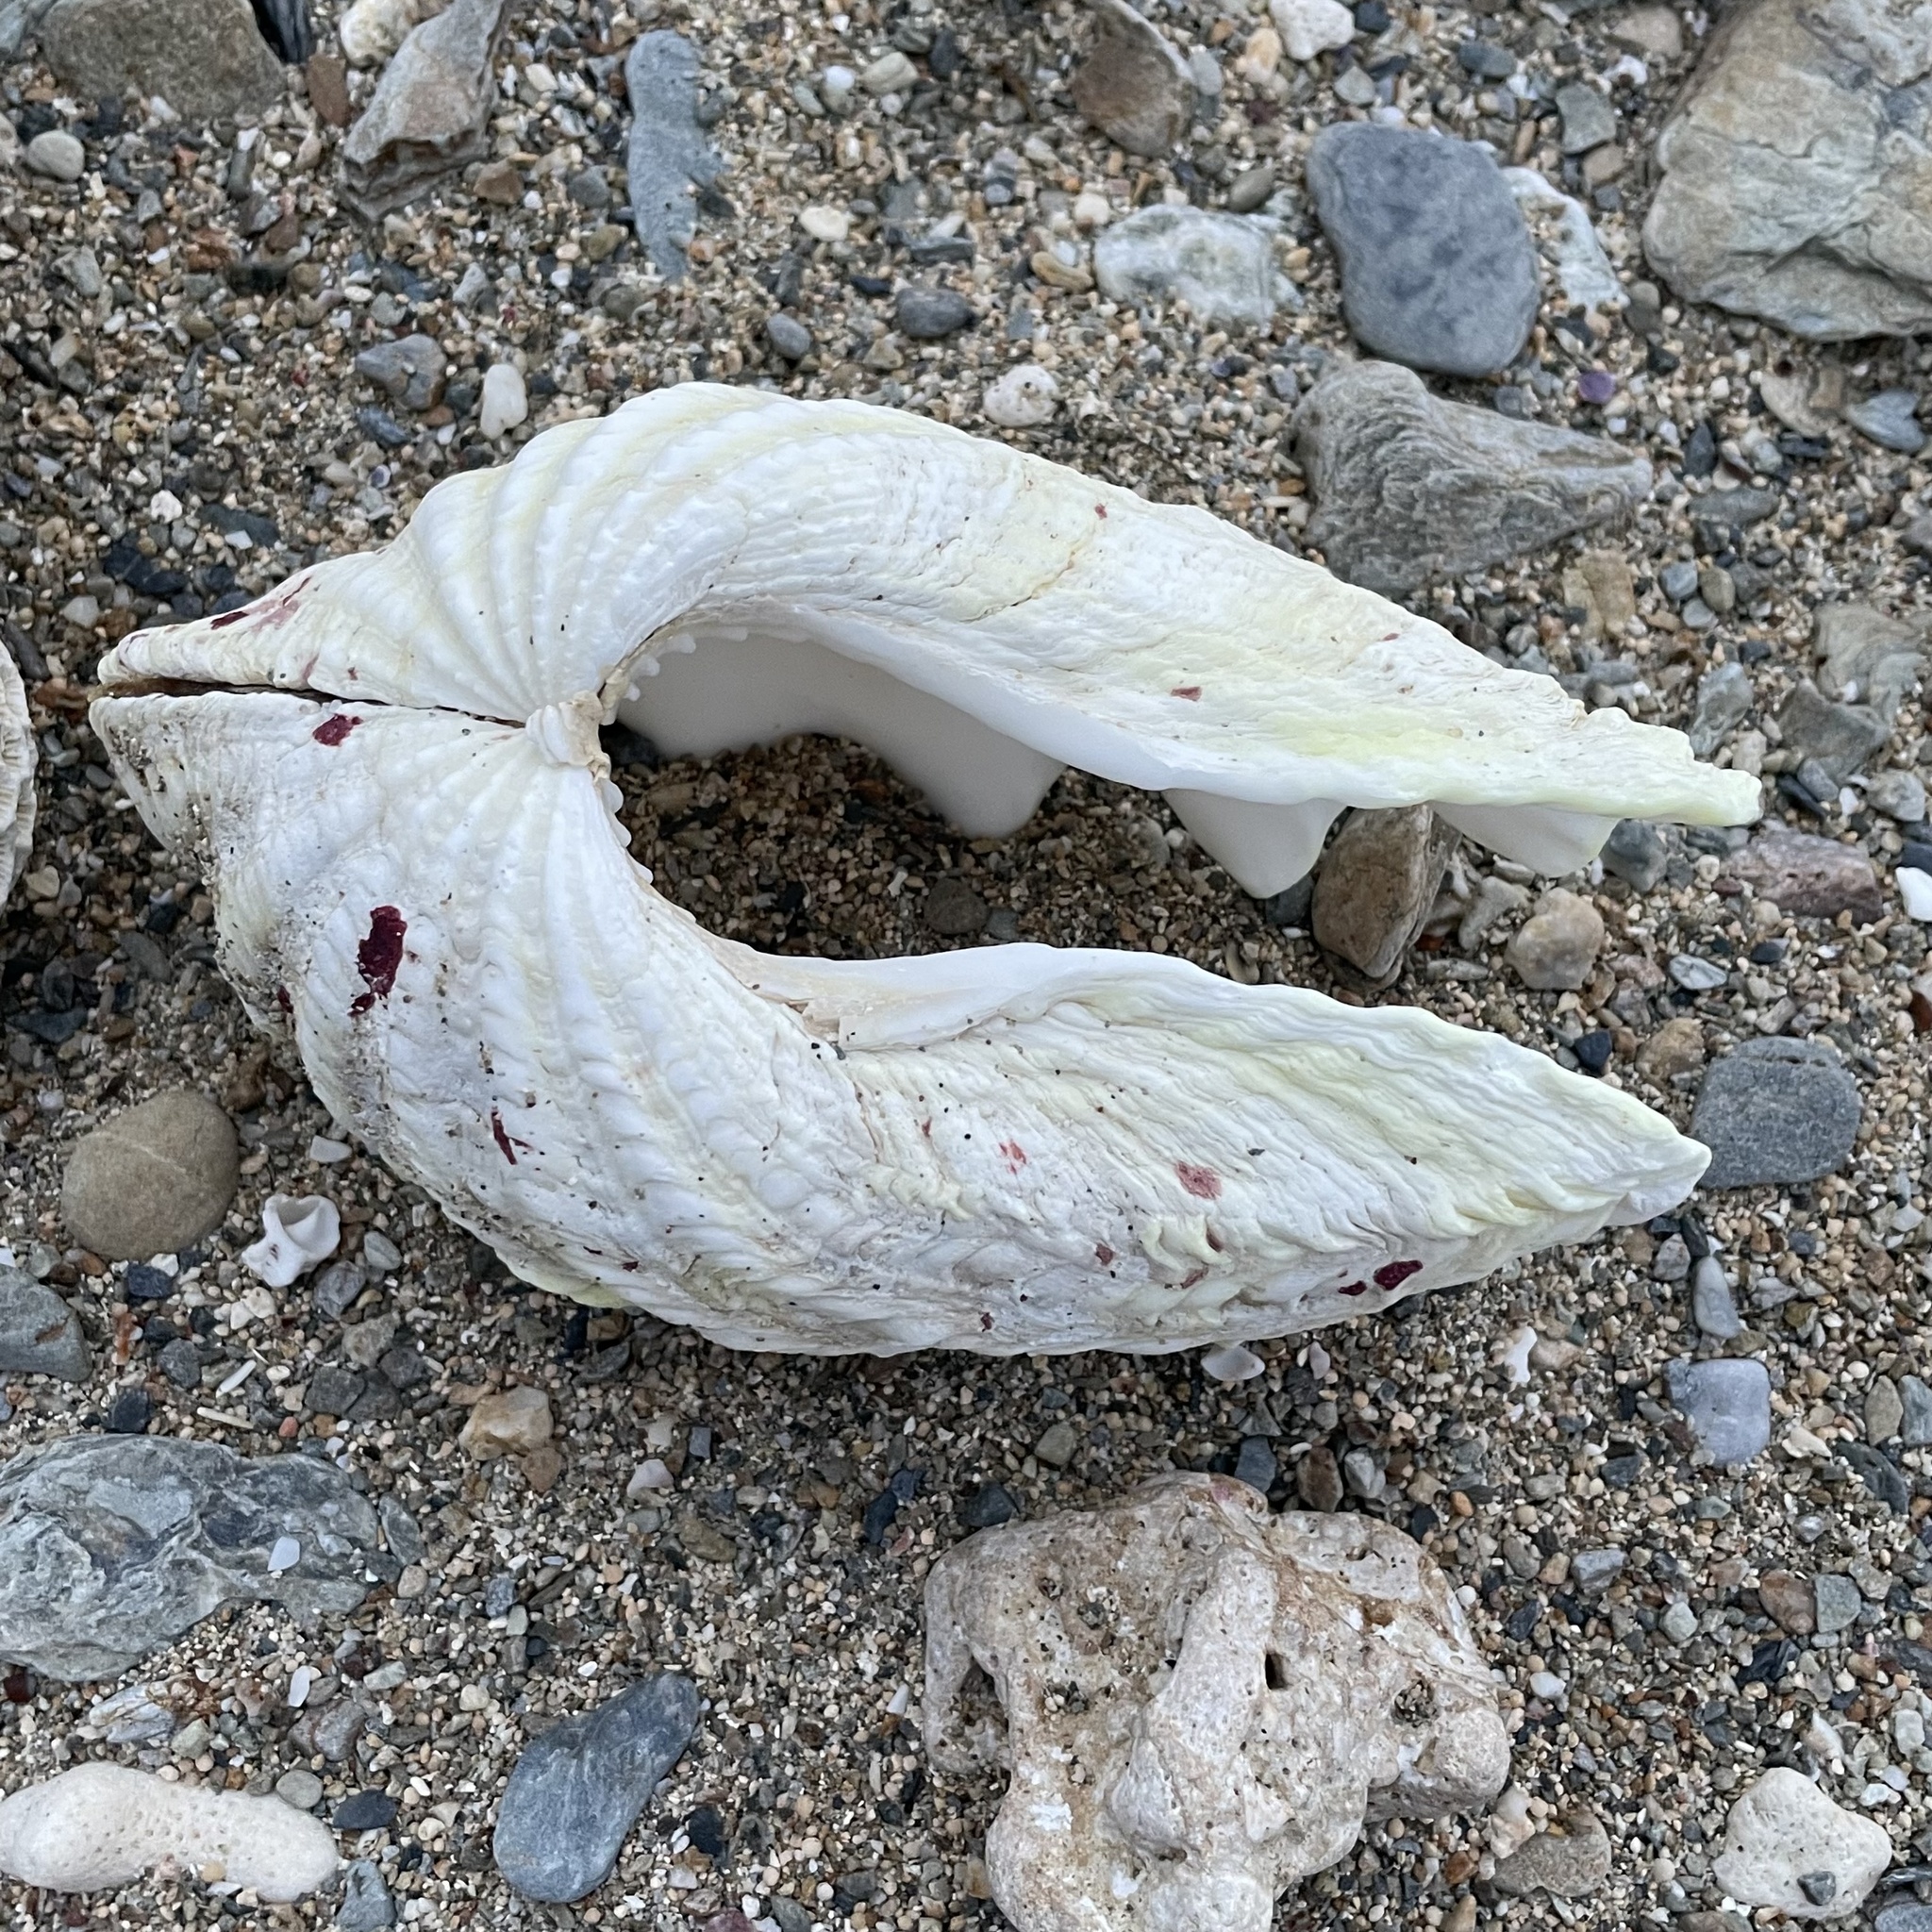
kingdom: Animalia
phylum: Mollusca
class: Bivalvia
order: Cardiida
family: Cardiidae
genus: Tridacna
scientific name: Tridacna maxima
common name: Small giant clam
